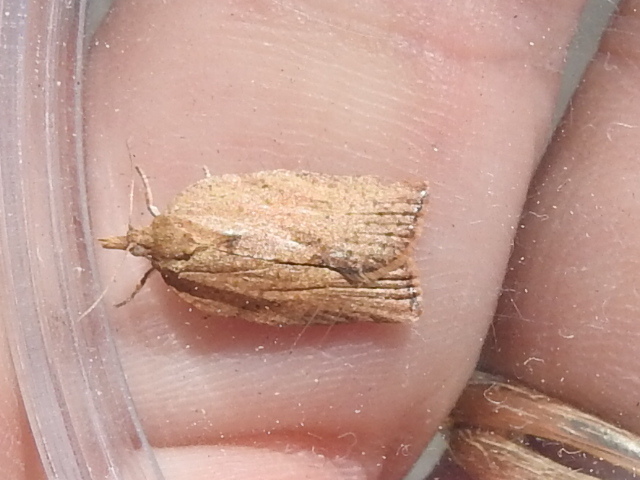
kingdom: Animalia
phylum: Arthropoda
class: Insecta
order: Lepidoptera
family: Tortricidae
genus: Epiphyas
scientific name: Epiphyas postvittana
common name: Light brown apple moth
